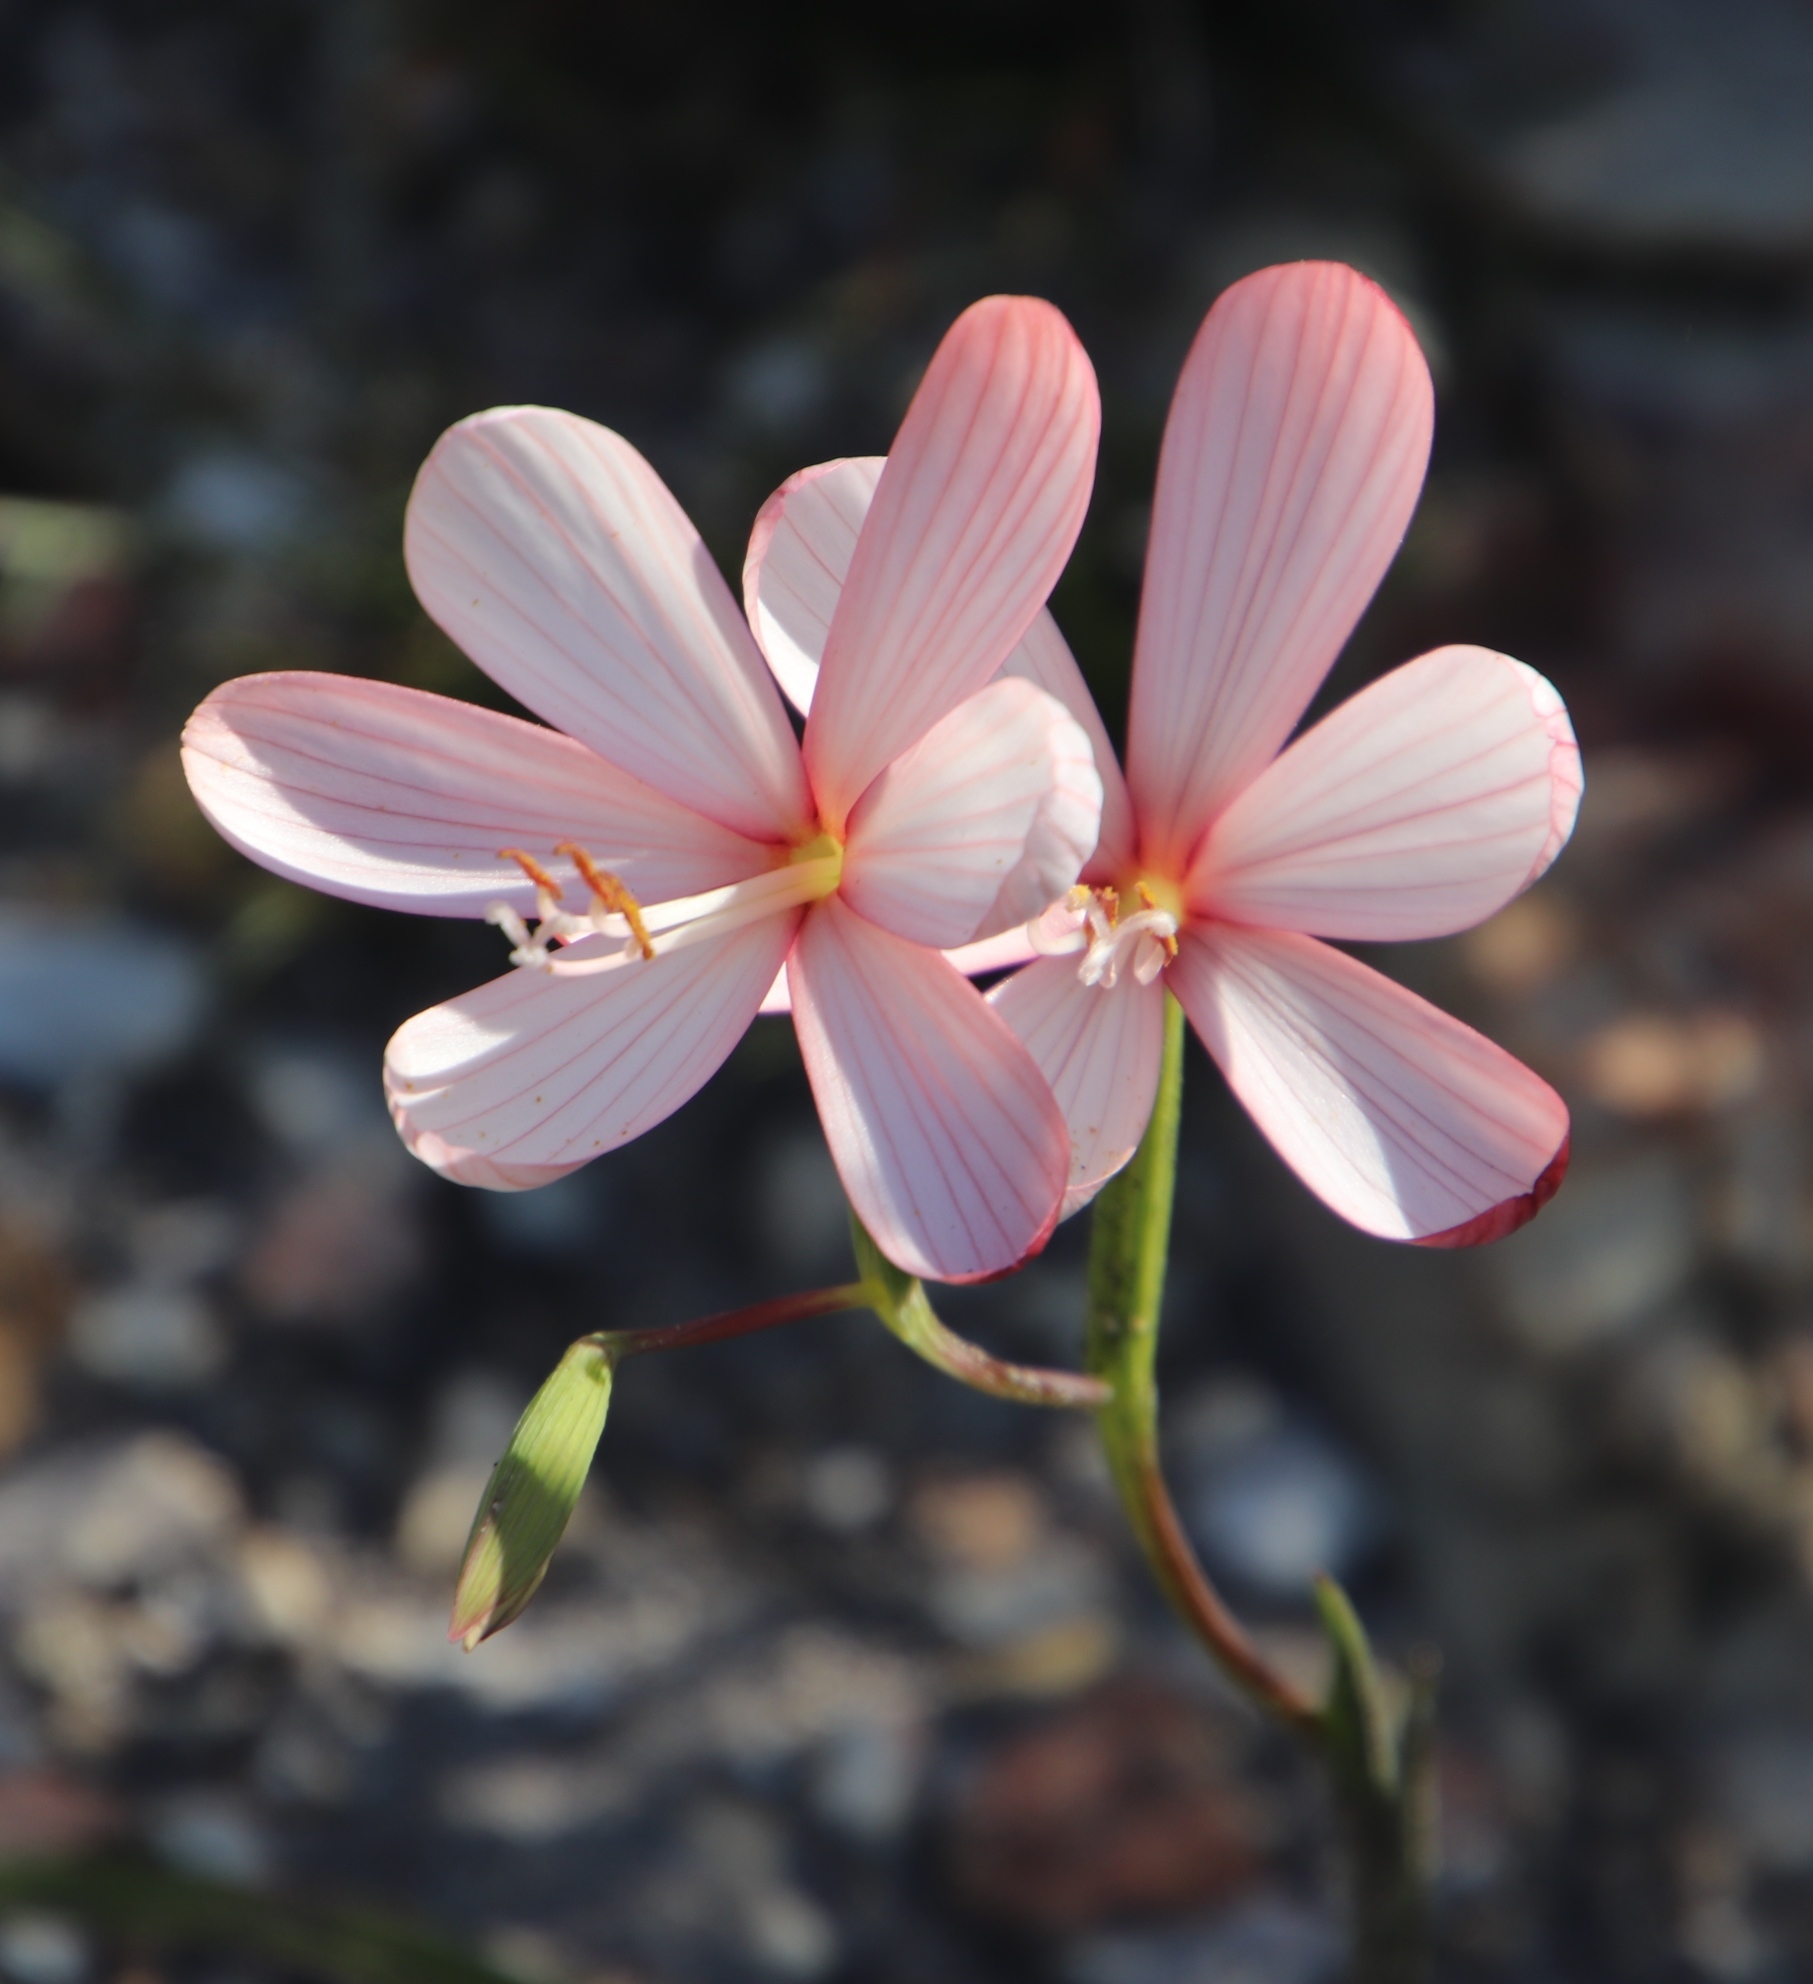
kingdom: Plantae
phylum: Tracheophyta
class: Liliopsida
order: Asparagales
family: Iridaceae
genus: Geissorhiza
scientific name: Geissorhiza schinzii
